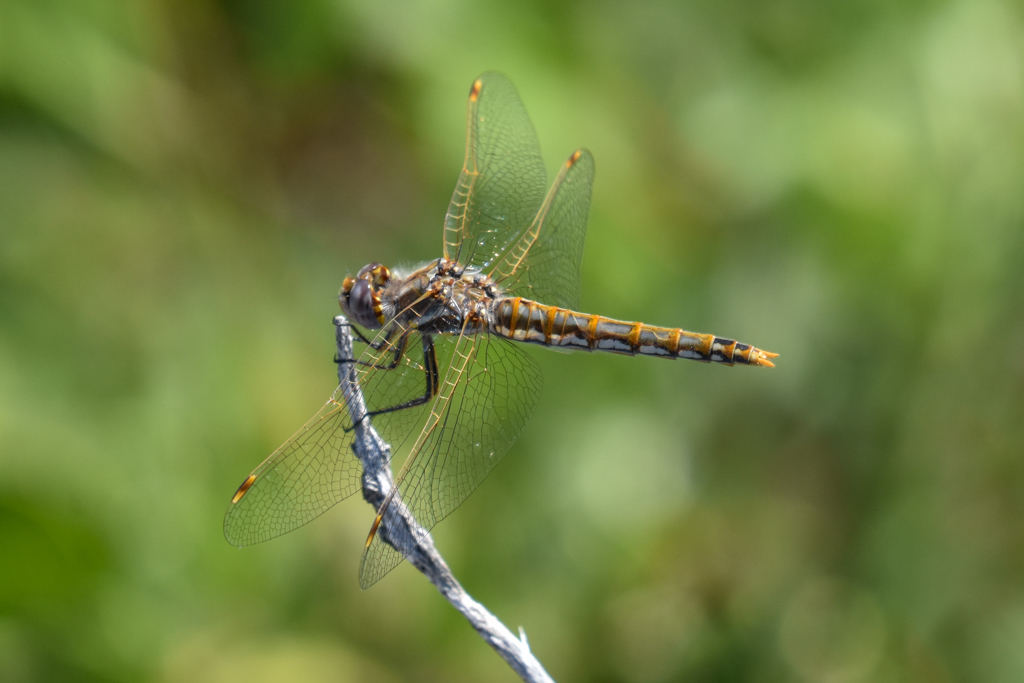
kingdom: Animalia
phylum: Arthropoda
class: Insecta
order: Odonata
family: Libellulidae
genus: Sympetrum
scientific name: Sympetrum corruptum
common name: Variegated meadowhawk
